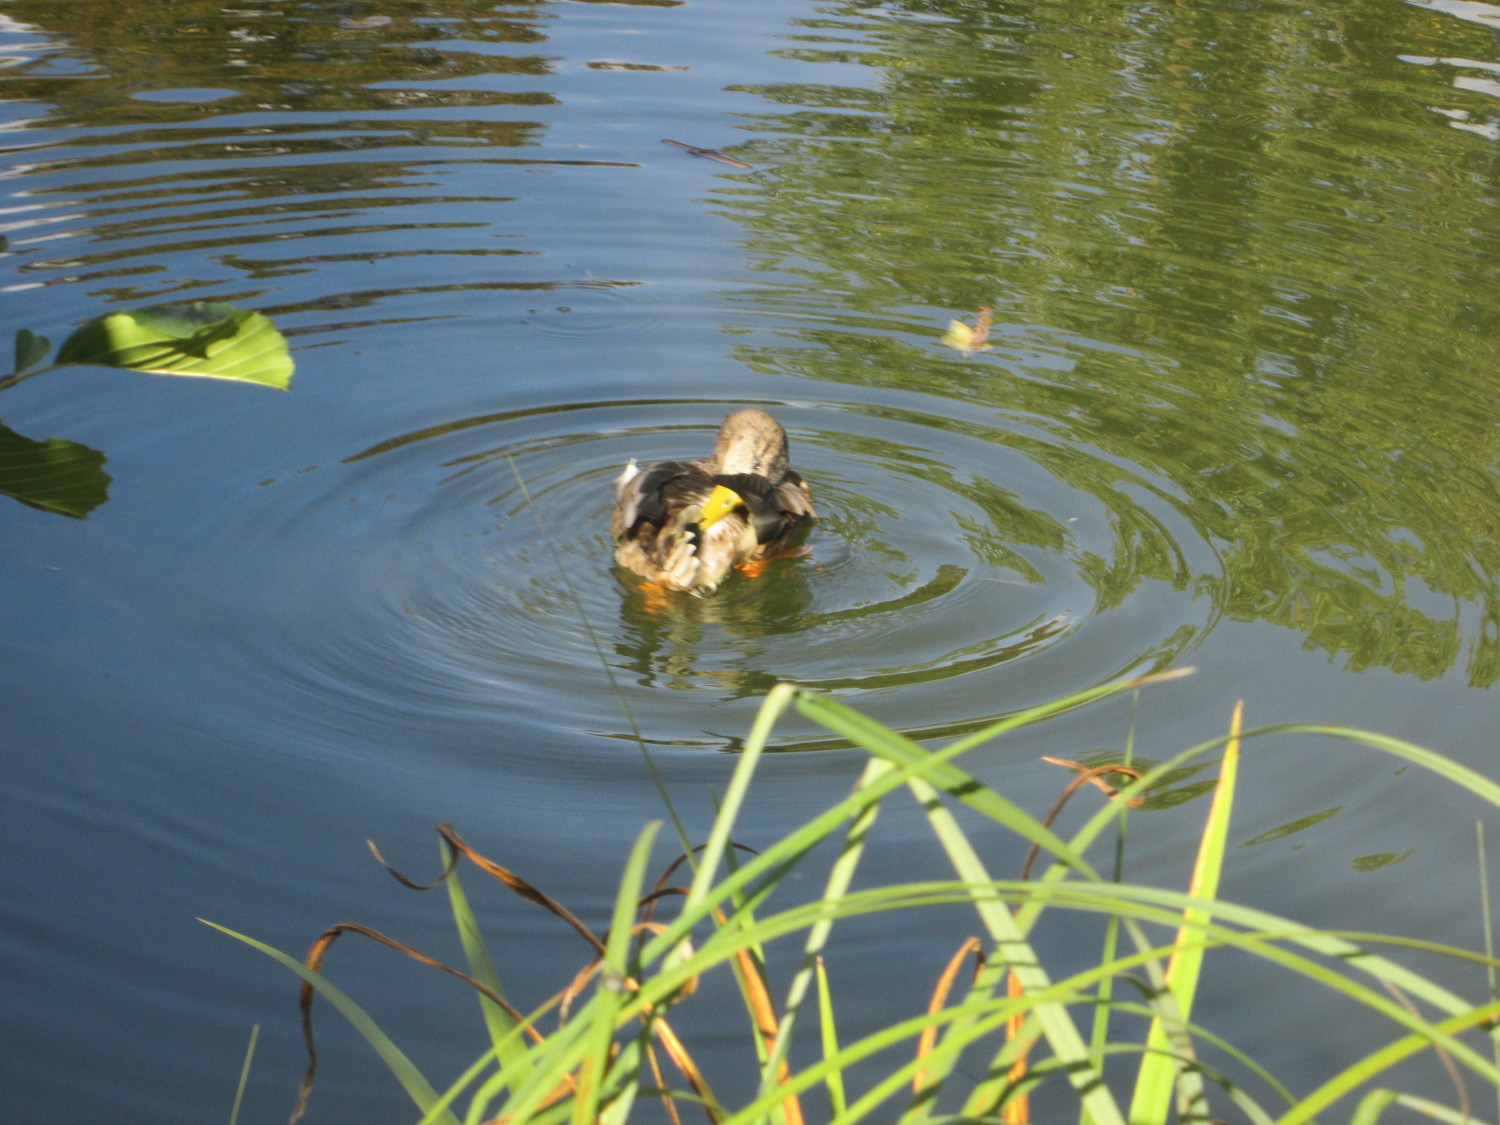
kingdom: Animalia
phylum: Chordata
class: Aves
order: Anseriformes
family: Anatidae
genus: Anas
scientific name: Anas platyrhynchos
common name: Mallard
